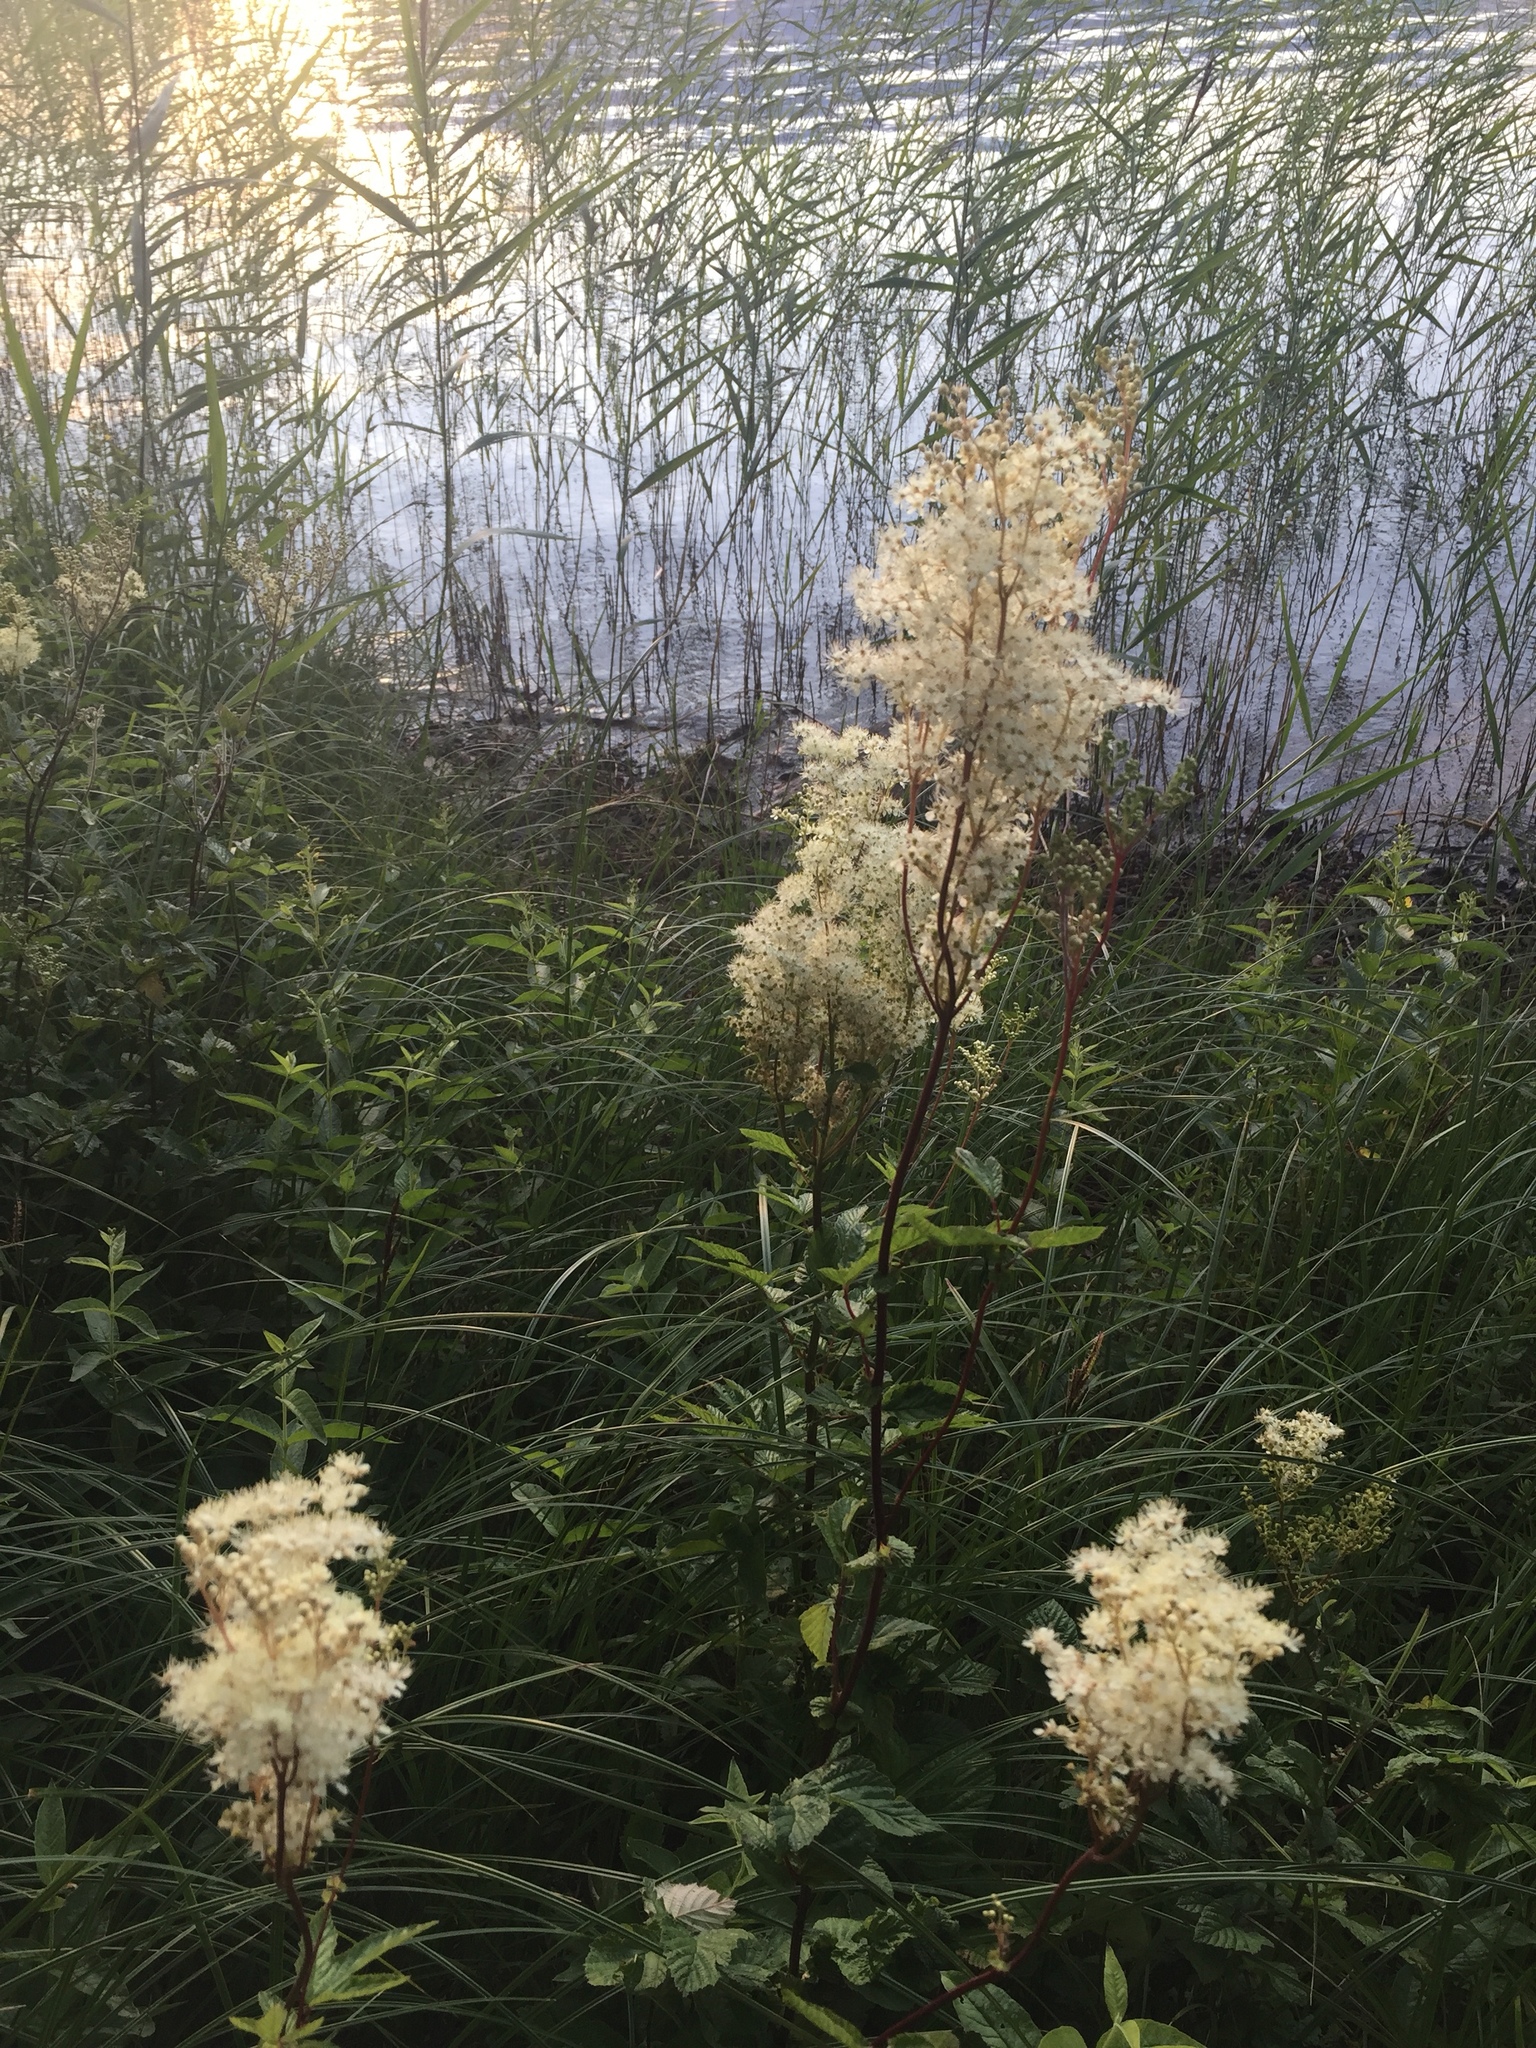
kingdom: Plantae
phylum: Tracheophyta
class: Magnoliopsida
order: Rosales
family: Rosaceae
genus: Filipendula
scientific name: Filipendula ulmaria
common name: Meadowsweet
